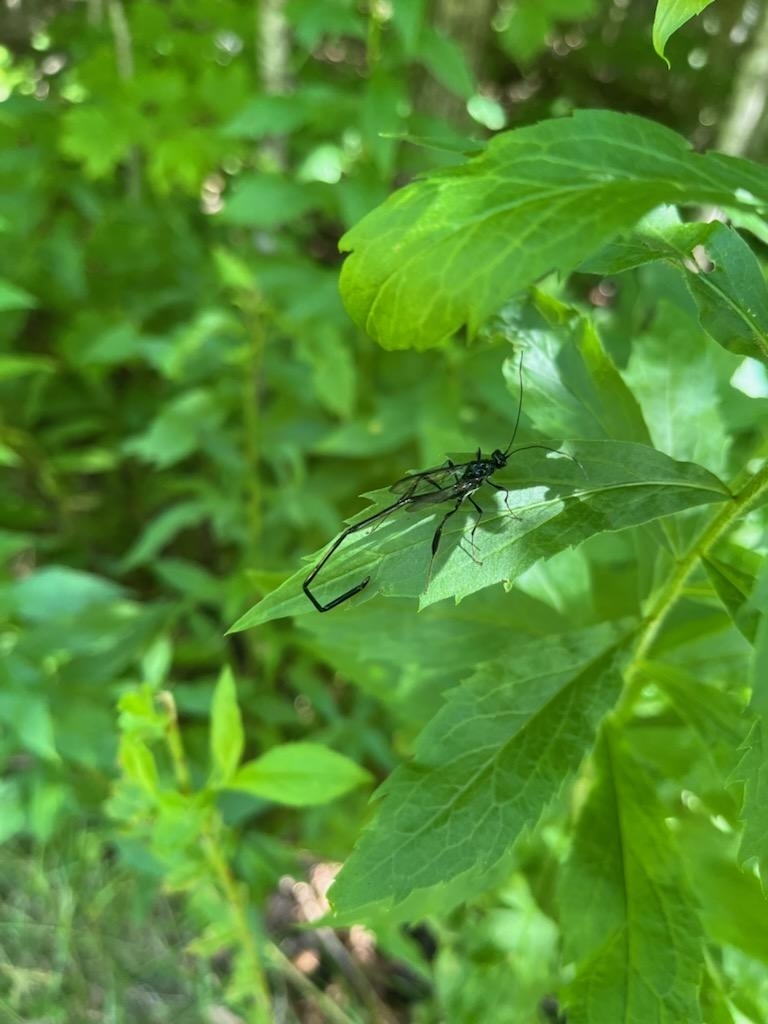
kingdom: Animalia
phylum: Arthropoda
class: Insecta
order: Hymenoptera
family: Pelecinidae
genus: Pelecinus
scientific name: Pelecinus polyturator
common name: American pelecinid wasp
